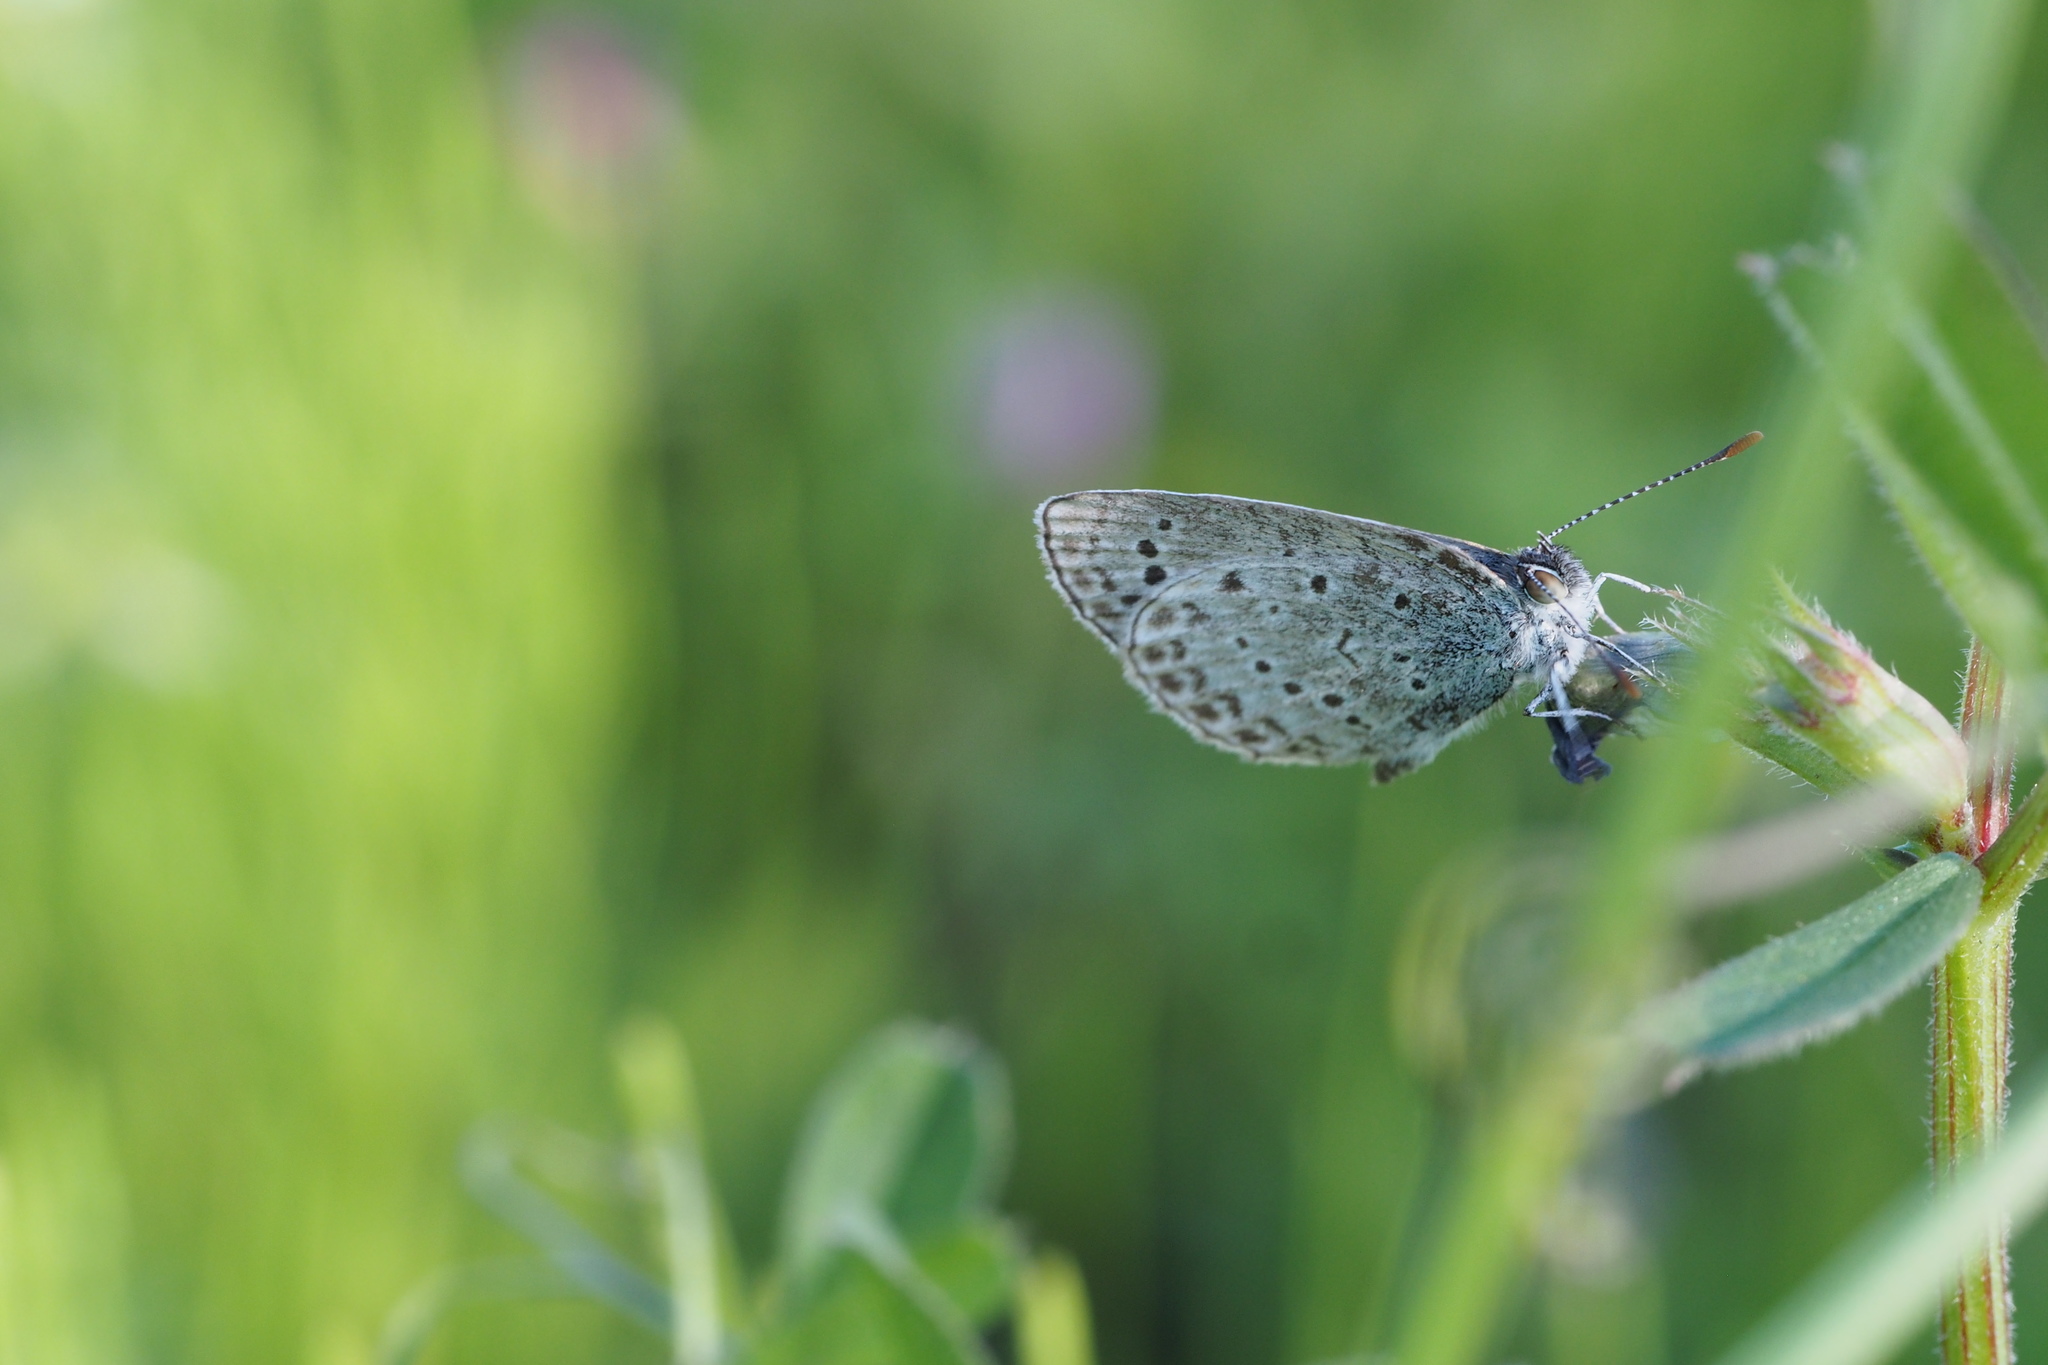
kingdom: Animalia
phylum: Arthropoda
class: Insecta
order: Lepidoptera
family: Lycaenidae
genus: Pseudozizeeria
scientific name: Pseudozizeeria maha
